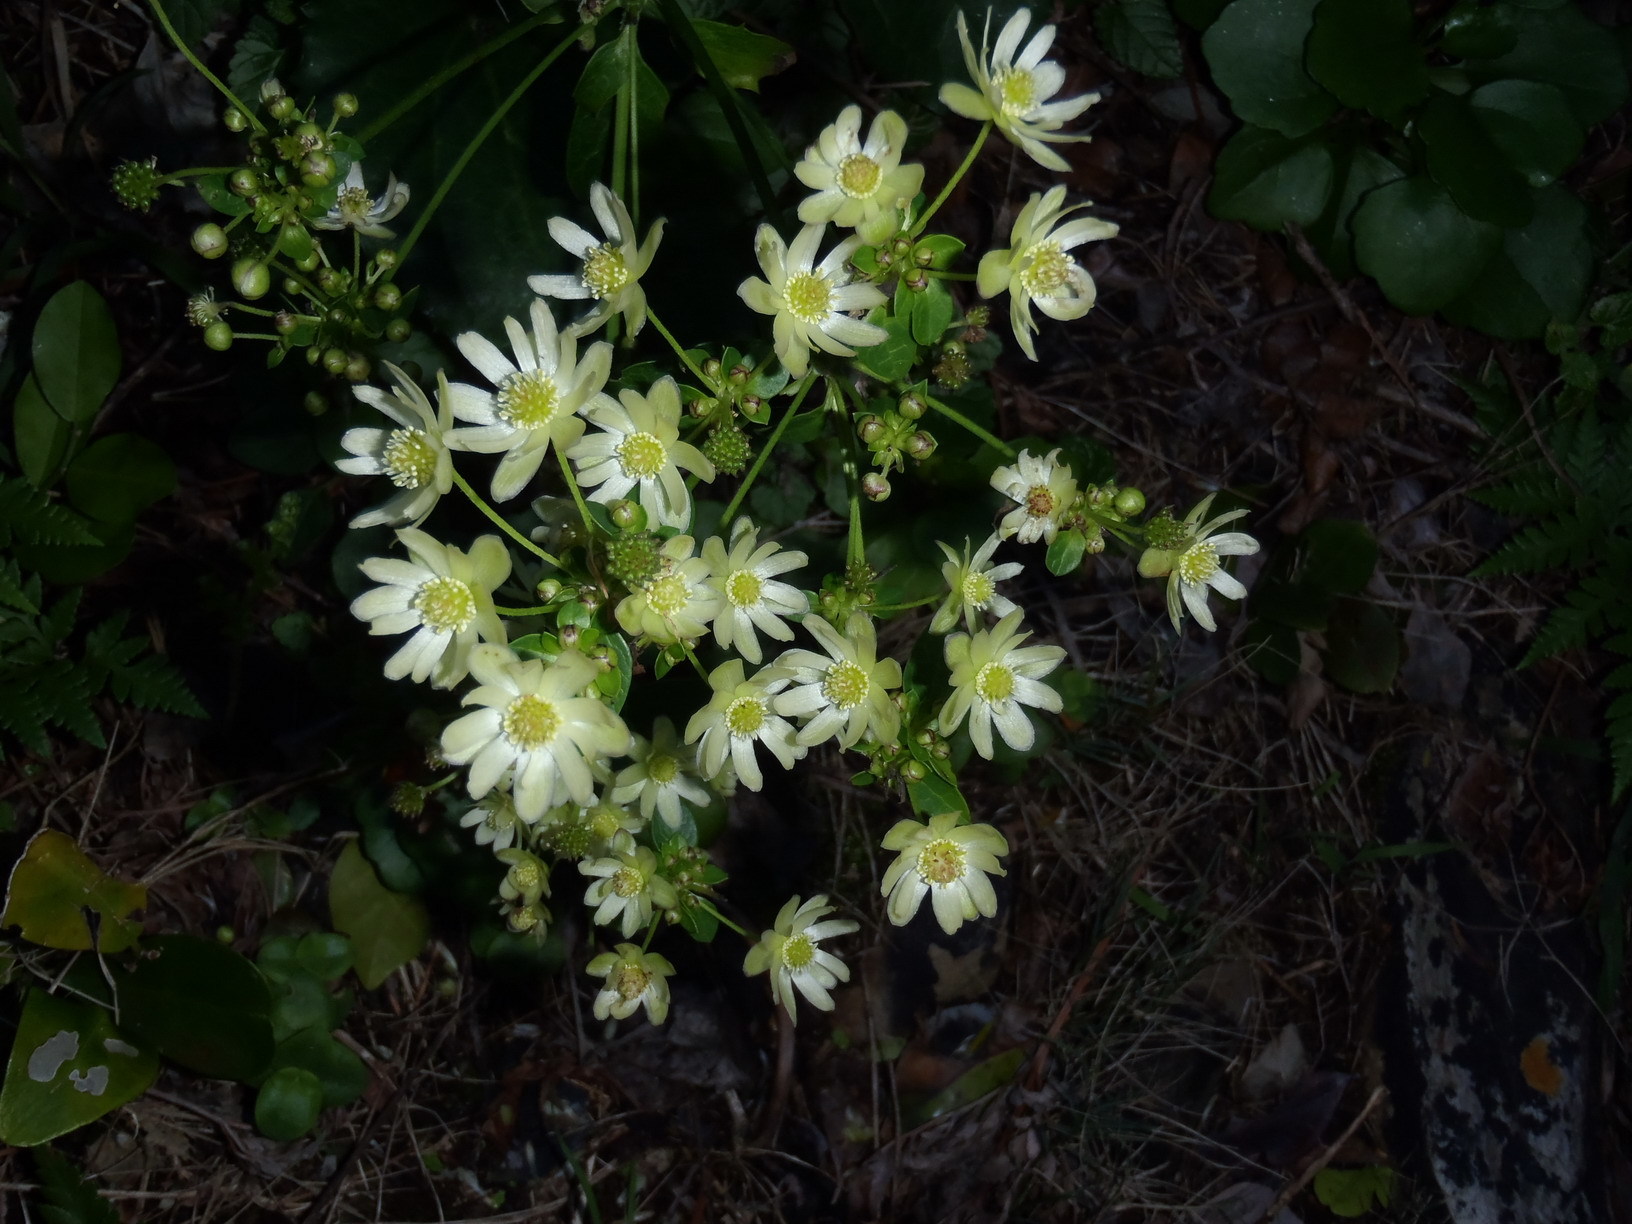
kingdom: Plantae
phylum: Tracheophyta
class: Magnoliopsida
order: Ranunculales
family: Ranunculaceae
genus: Knowltonia
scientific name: Knowltonia vesicatoria
